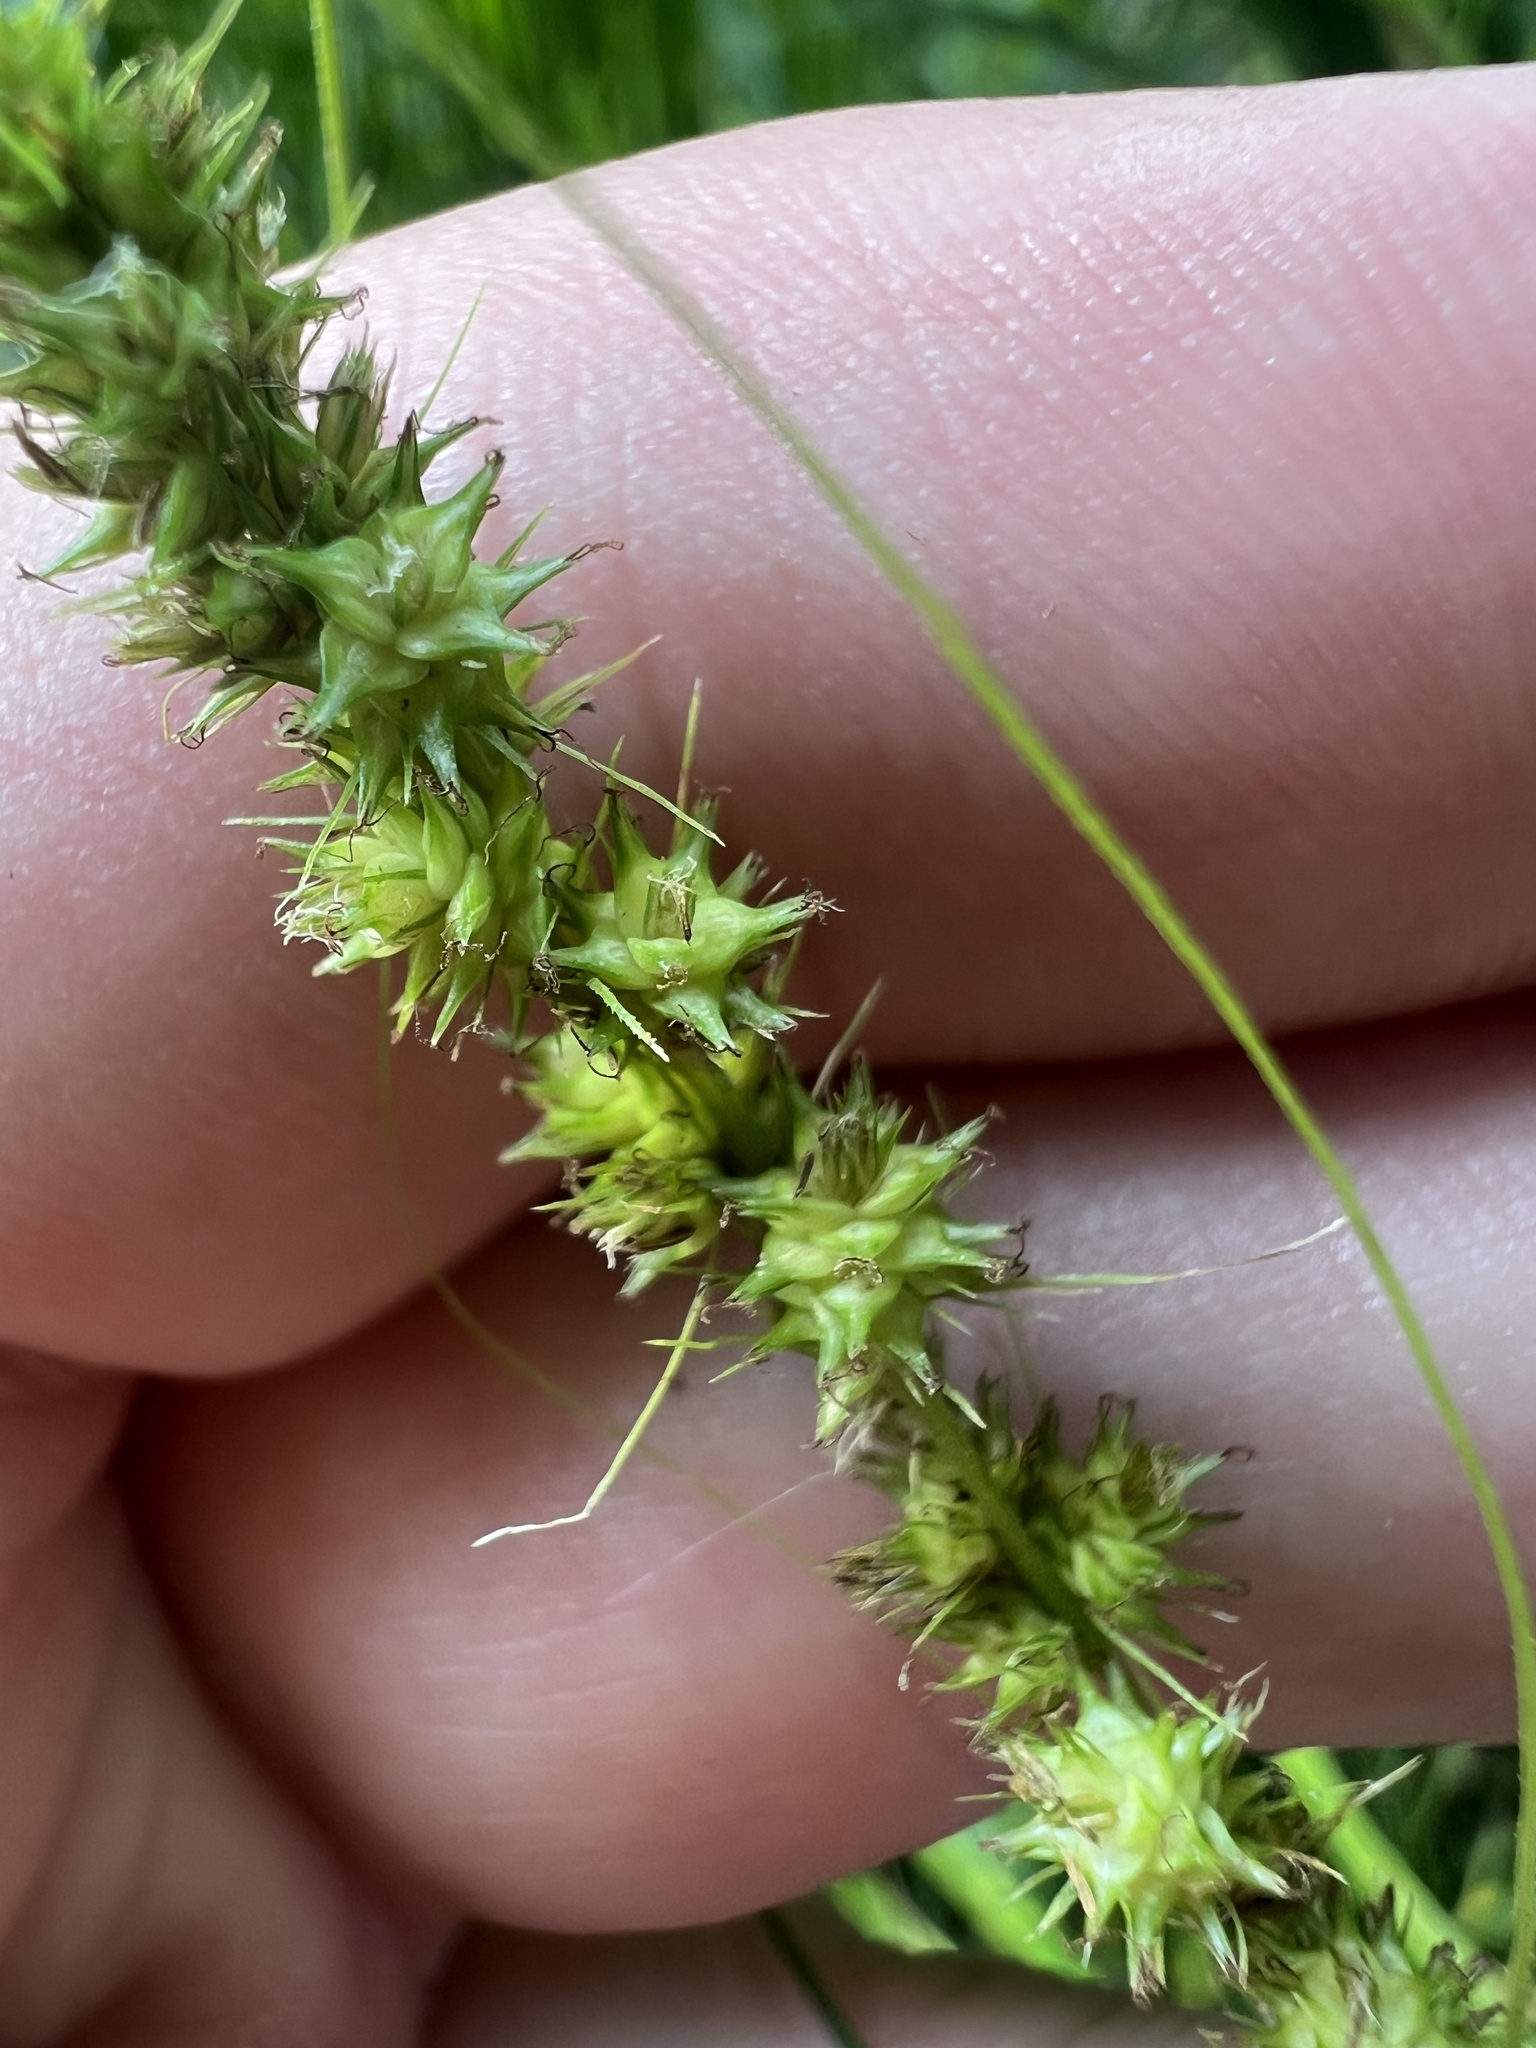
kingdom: Plantae
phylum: Tracheophyta
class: Liliopsida
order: Poales
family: Cyperaceae
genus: Carex
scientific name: Carex annectens
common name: Large fox sedge
